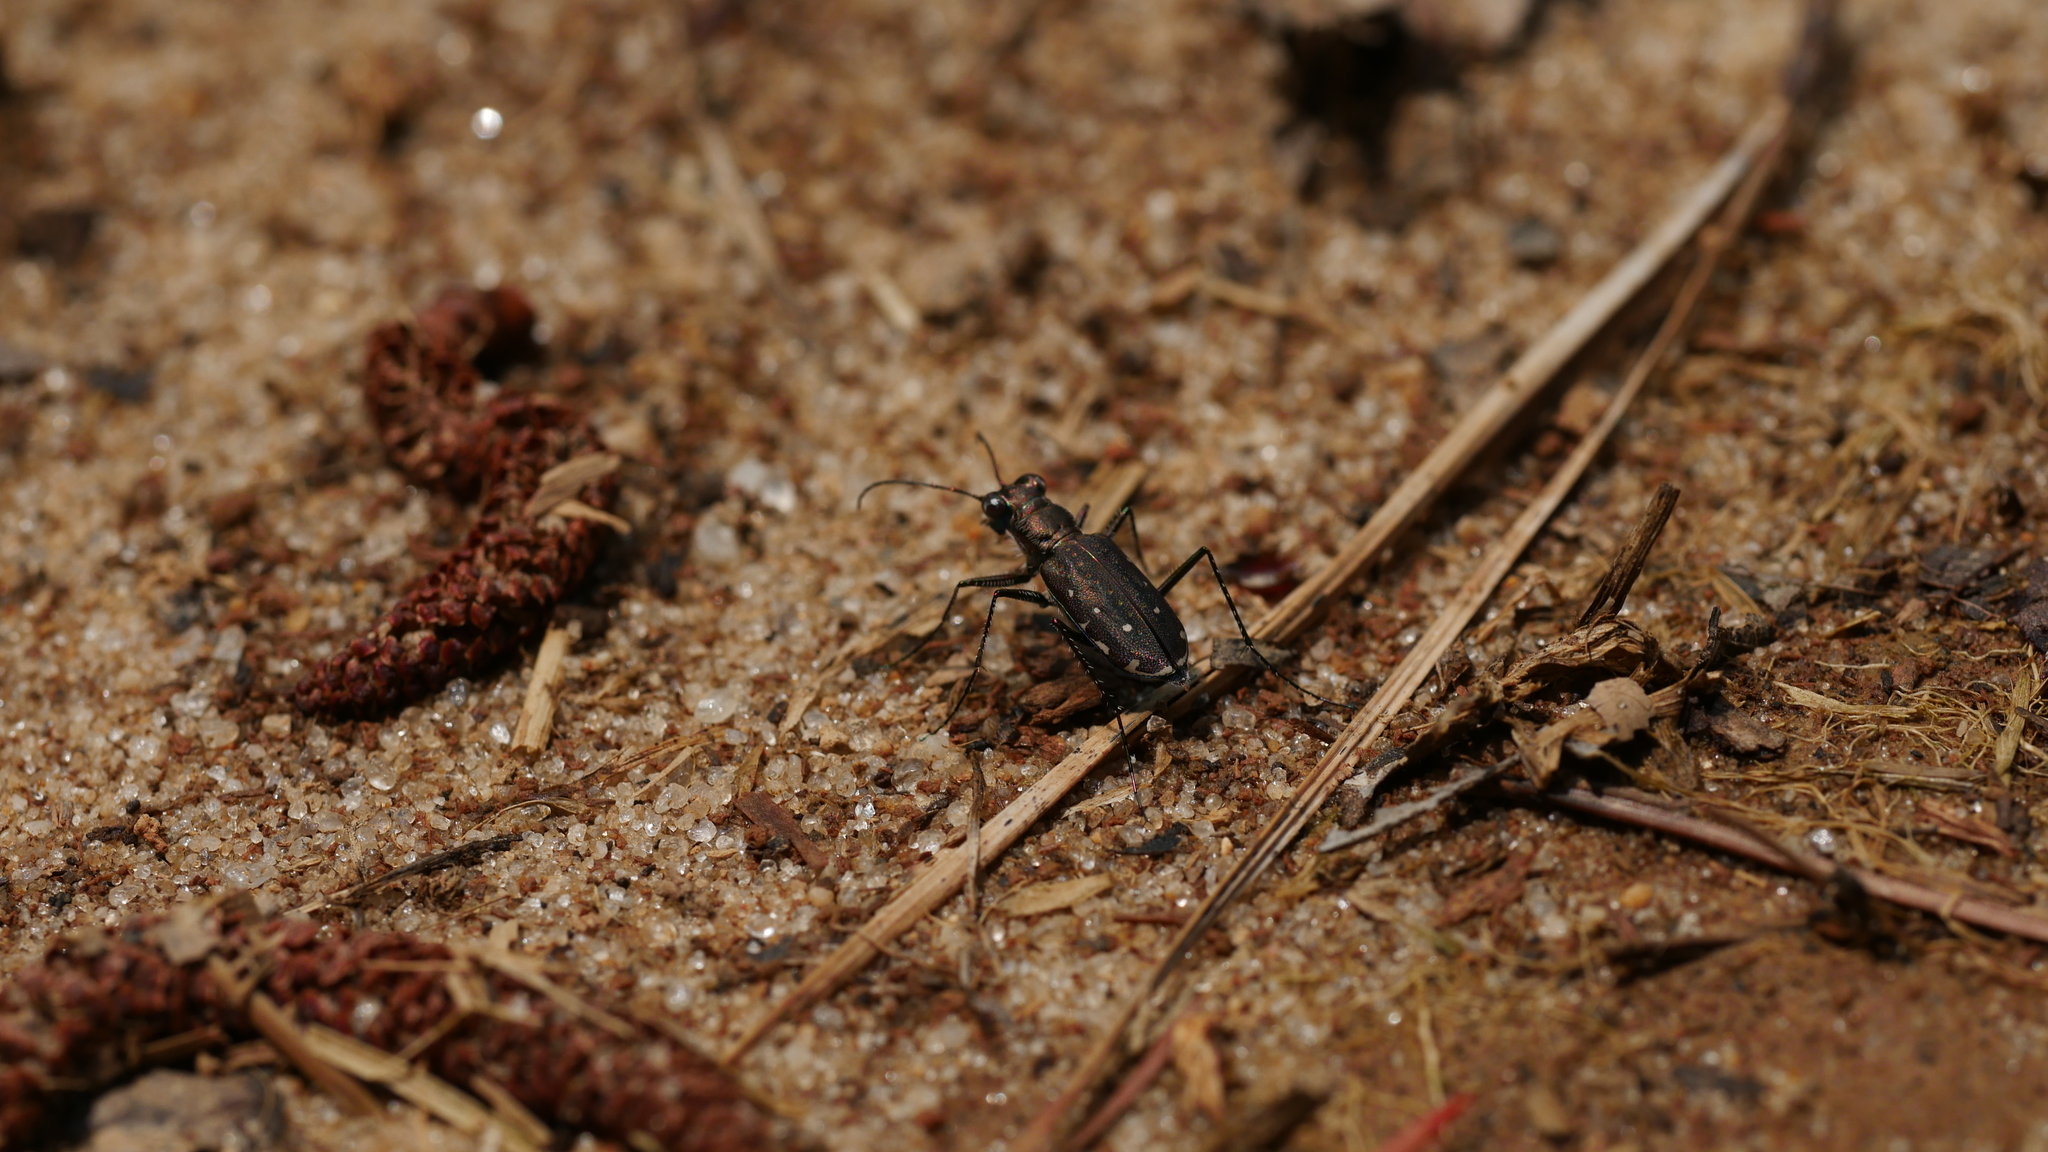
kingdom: Animalia
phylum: Arthropoda
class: Insecta
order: Coleoptera
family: Carabidae
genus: Cicindela
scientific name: Cicindela punctulata
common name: Punctured tiger beetle
